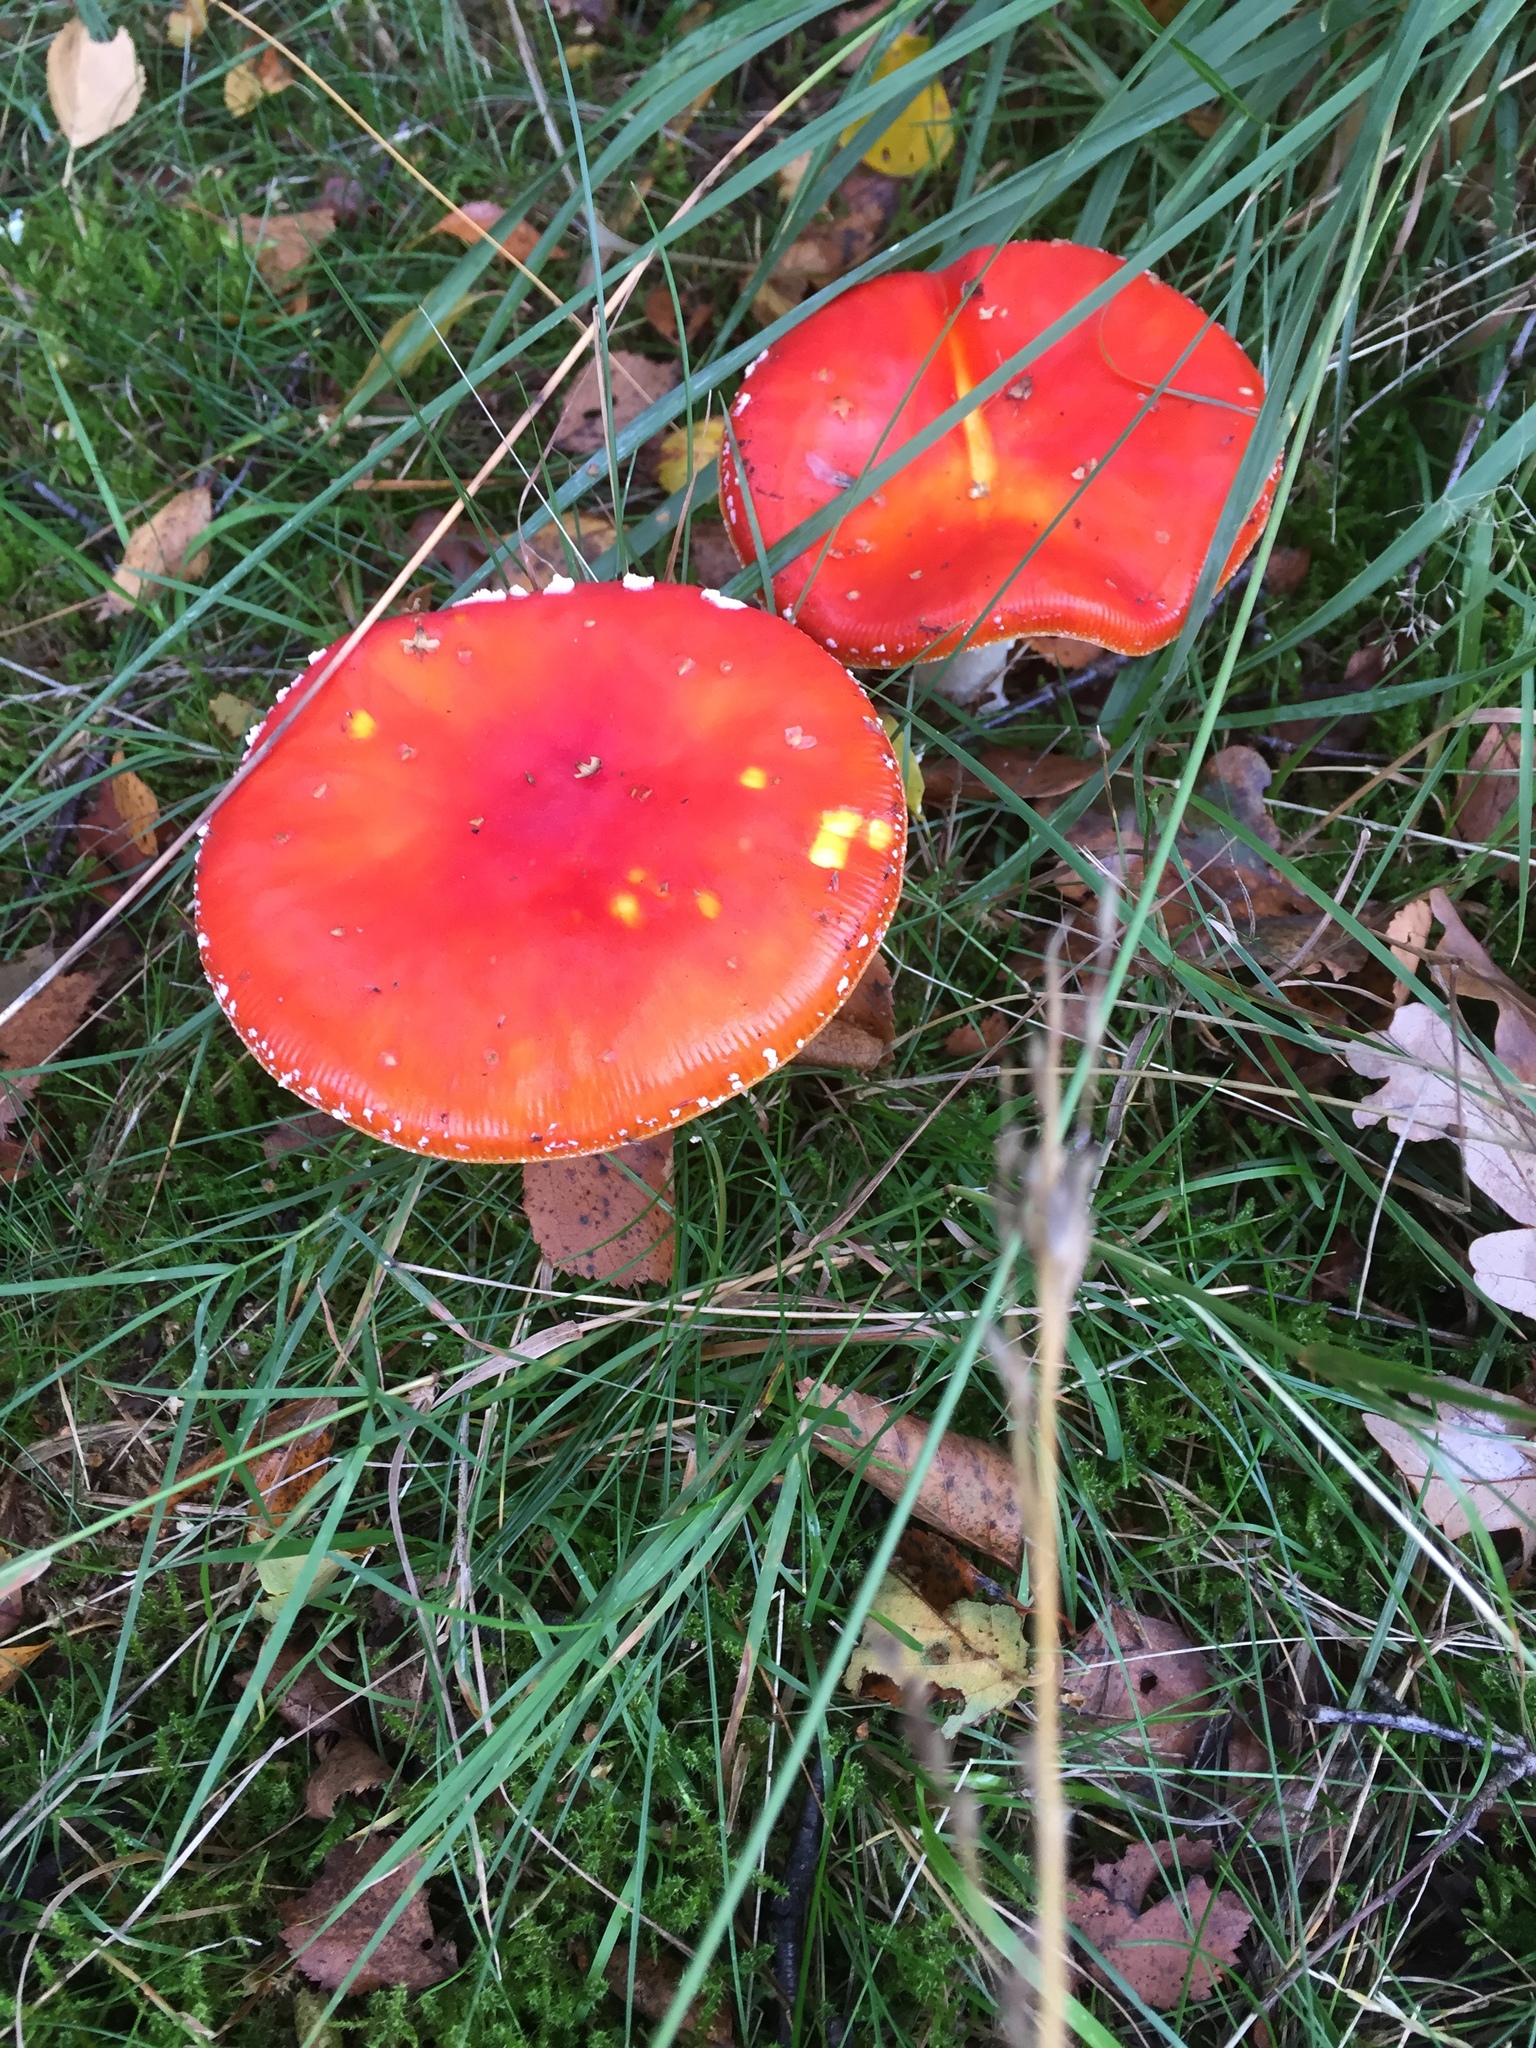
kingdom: Fungi
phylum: Basidiomycota
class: Agaricomycetes
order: Agaricales
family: Amanitaceae
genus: Amanita
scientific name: Amanita muscaria
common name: Fly agaric
